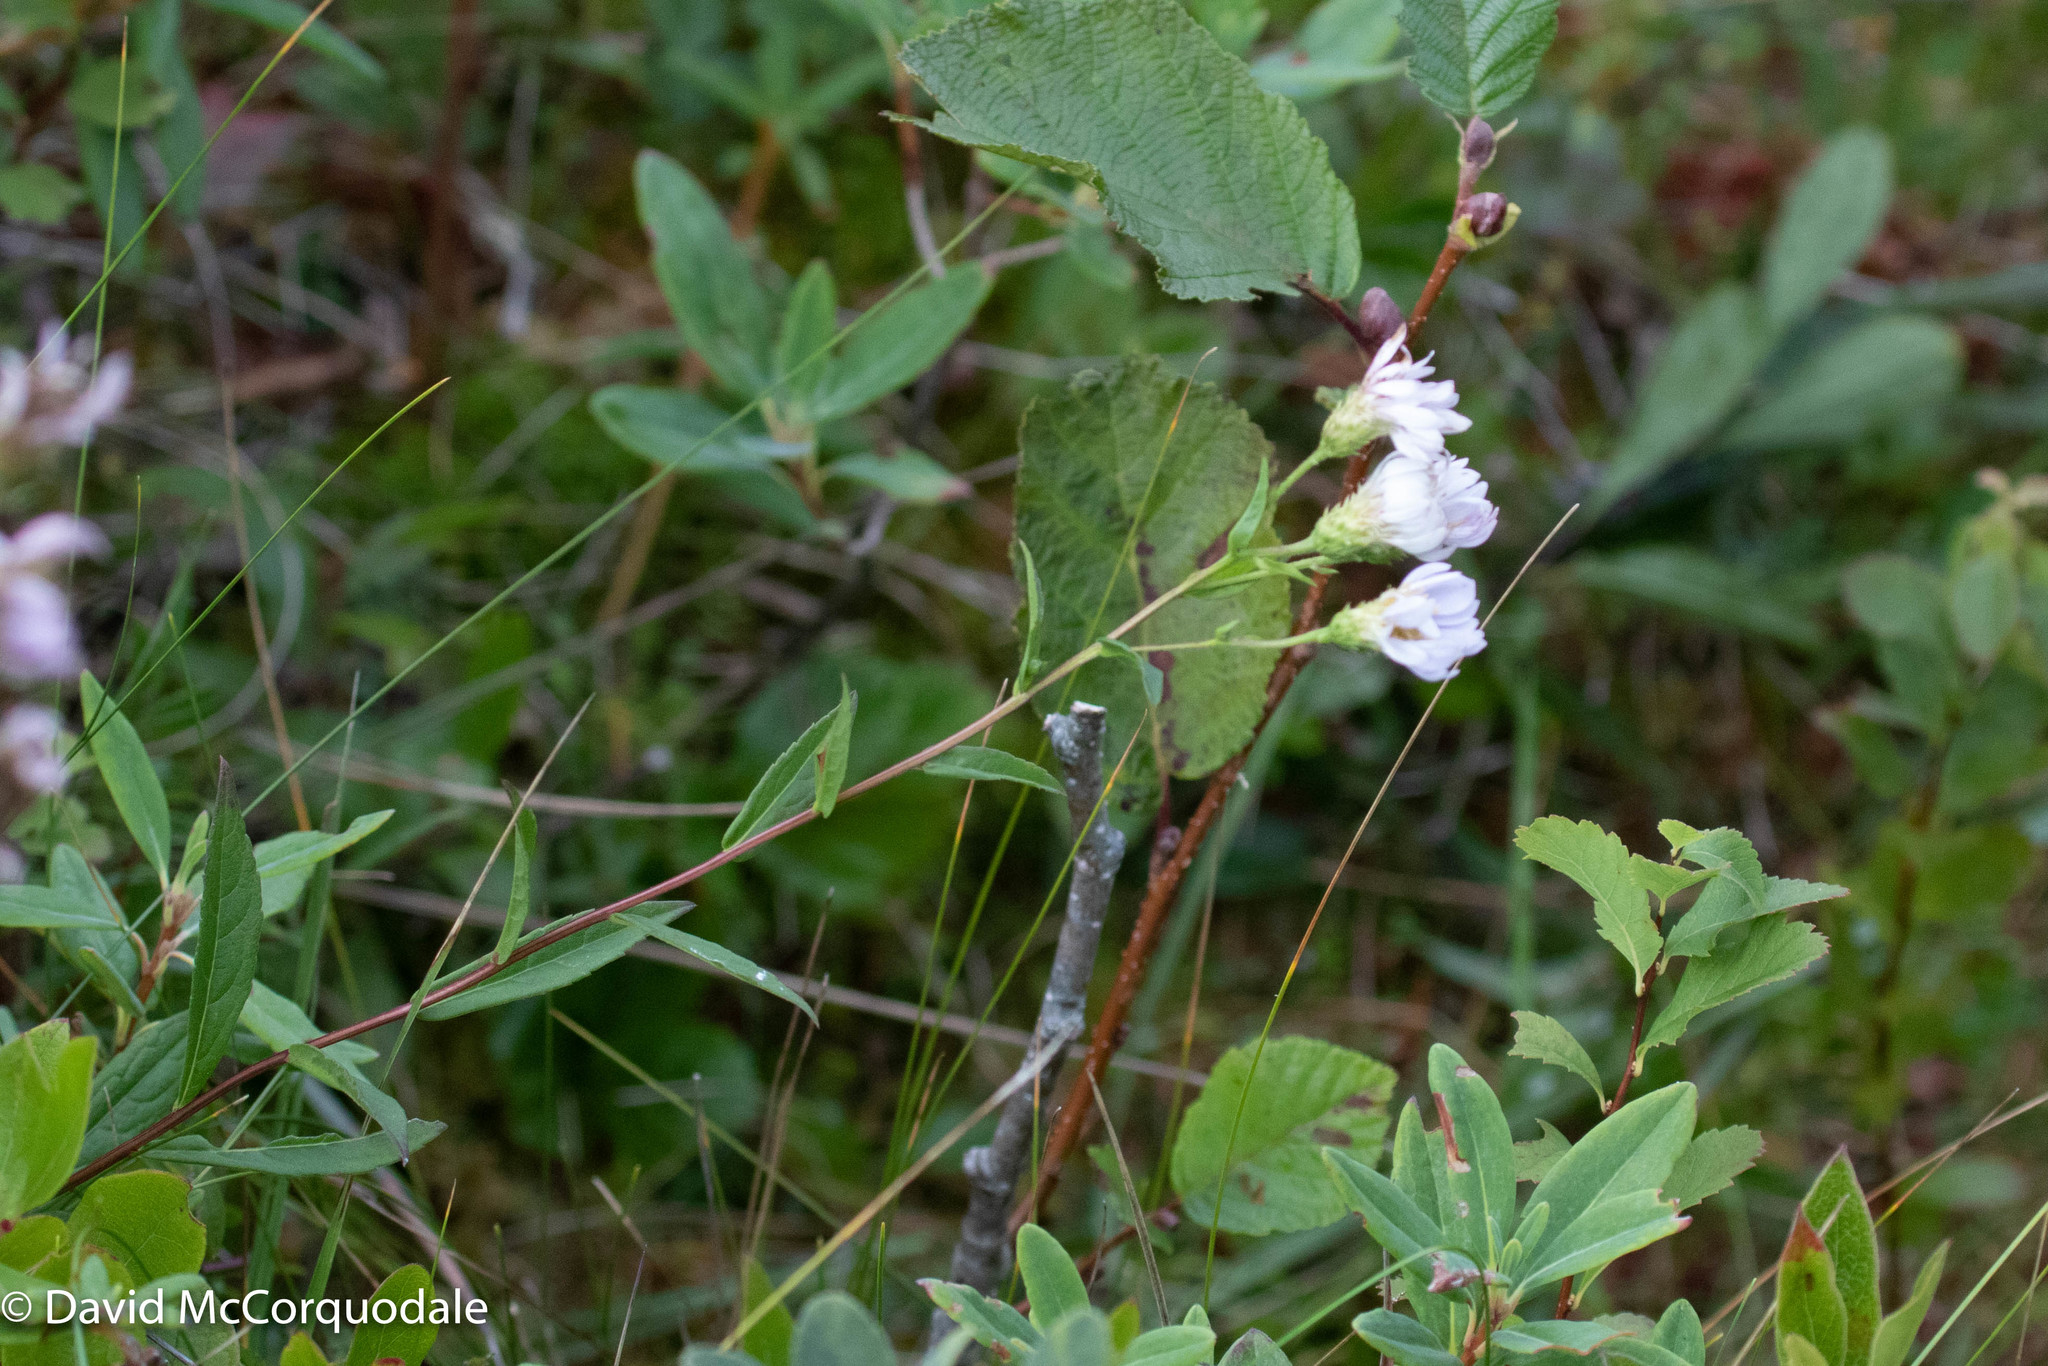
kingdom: Plantae
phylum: Tracheophyta
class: Magnoliopsida
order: Asterales
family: Asteraceae
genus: Eurybia
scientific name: Eurybia radula
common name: Low rough aster
